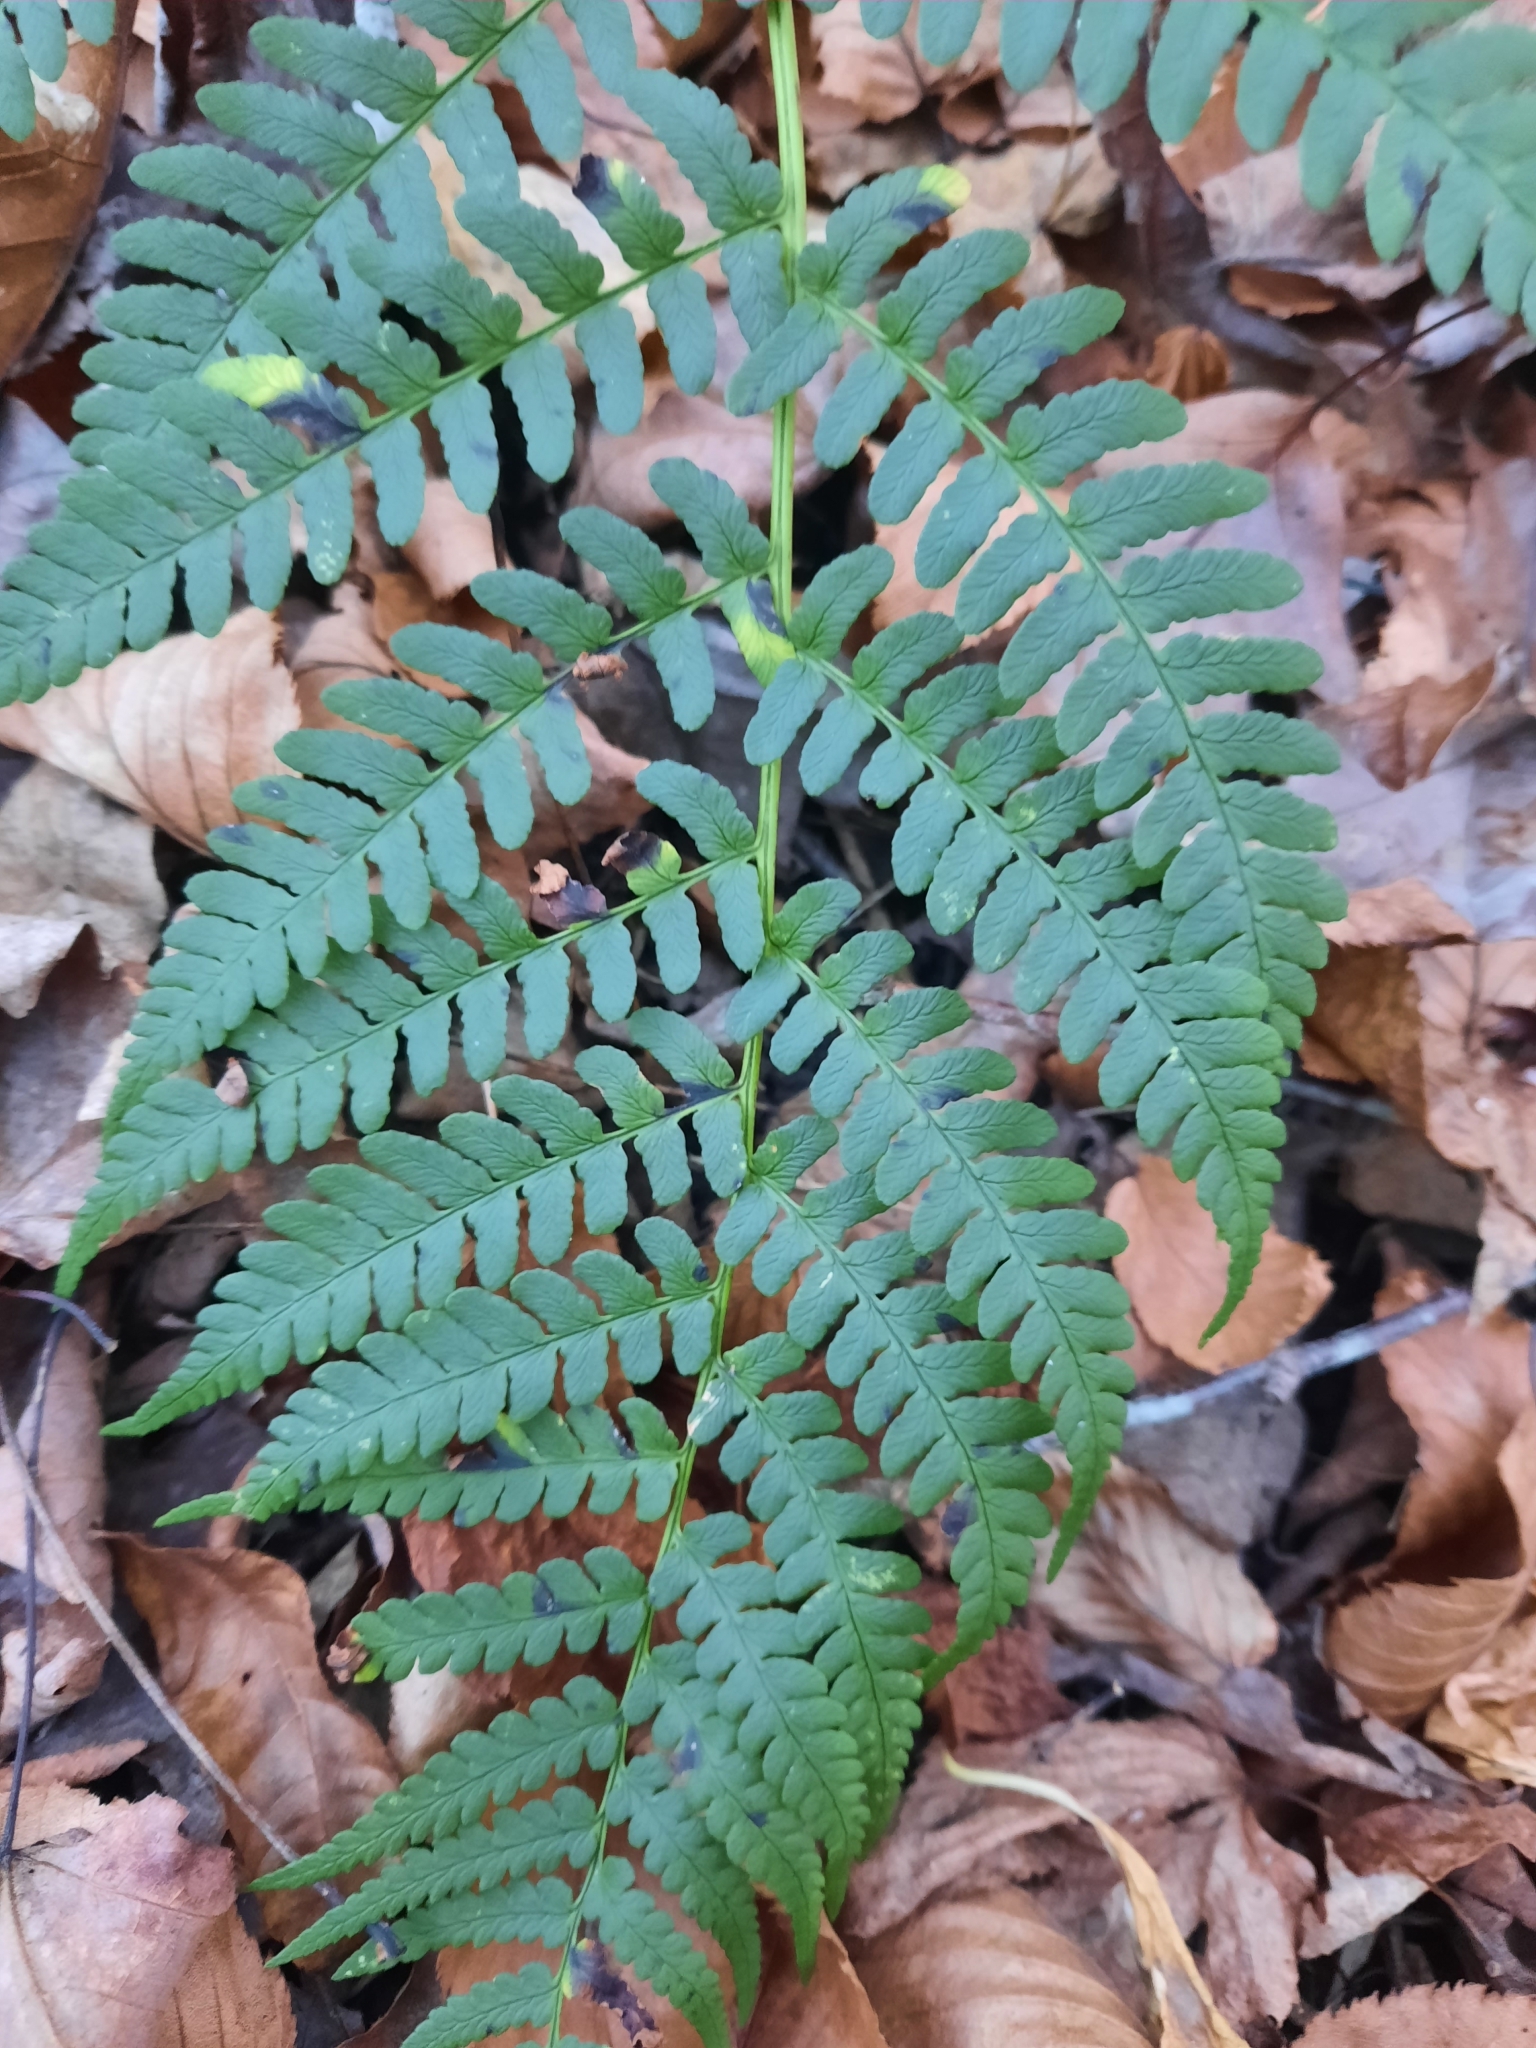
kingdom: Plantae
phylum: Tracheophyta
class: Polypodiopsida
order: Polypodiales
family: Dryopteridaceae
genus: Dryopteris
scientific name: Dryopteris marginalis
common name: Marginal wood fern
